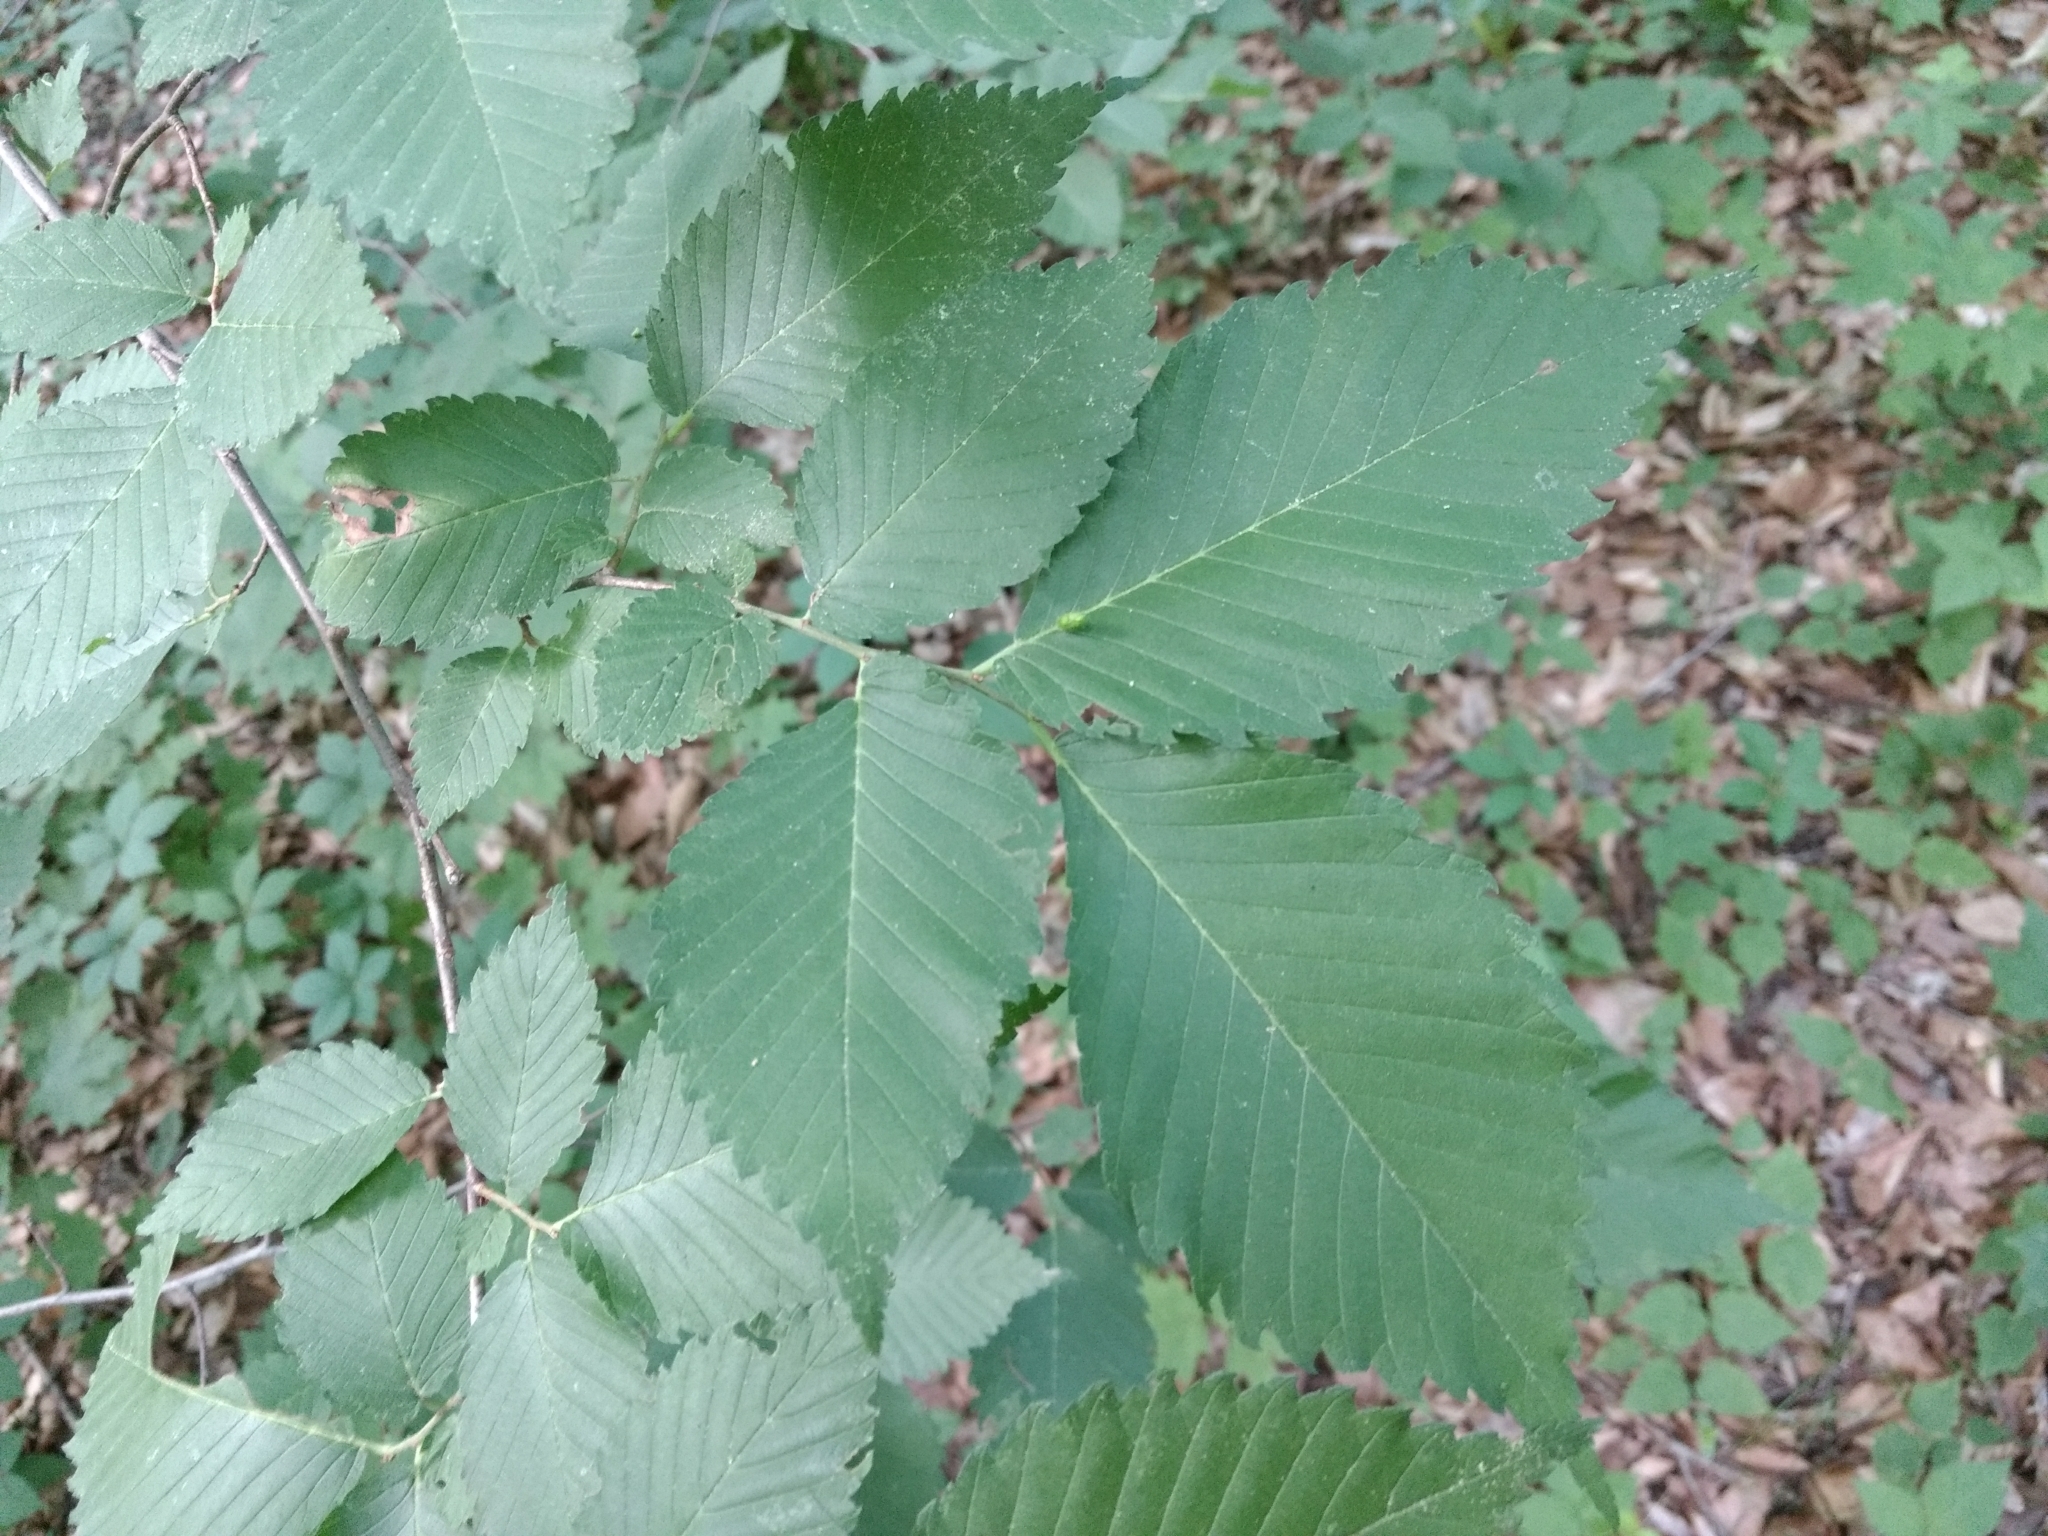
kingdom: Plantae
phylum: Tracheophyta
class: Magnoliopsida
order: Rosales
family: Ulmaceae
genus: Ulmus
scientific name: Ulmus americana
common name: American elm
